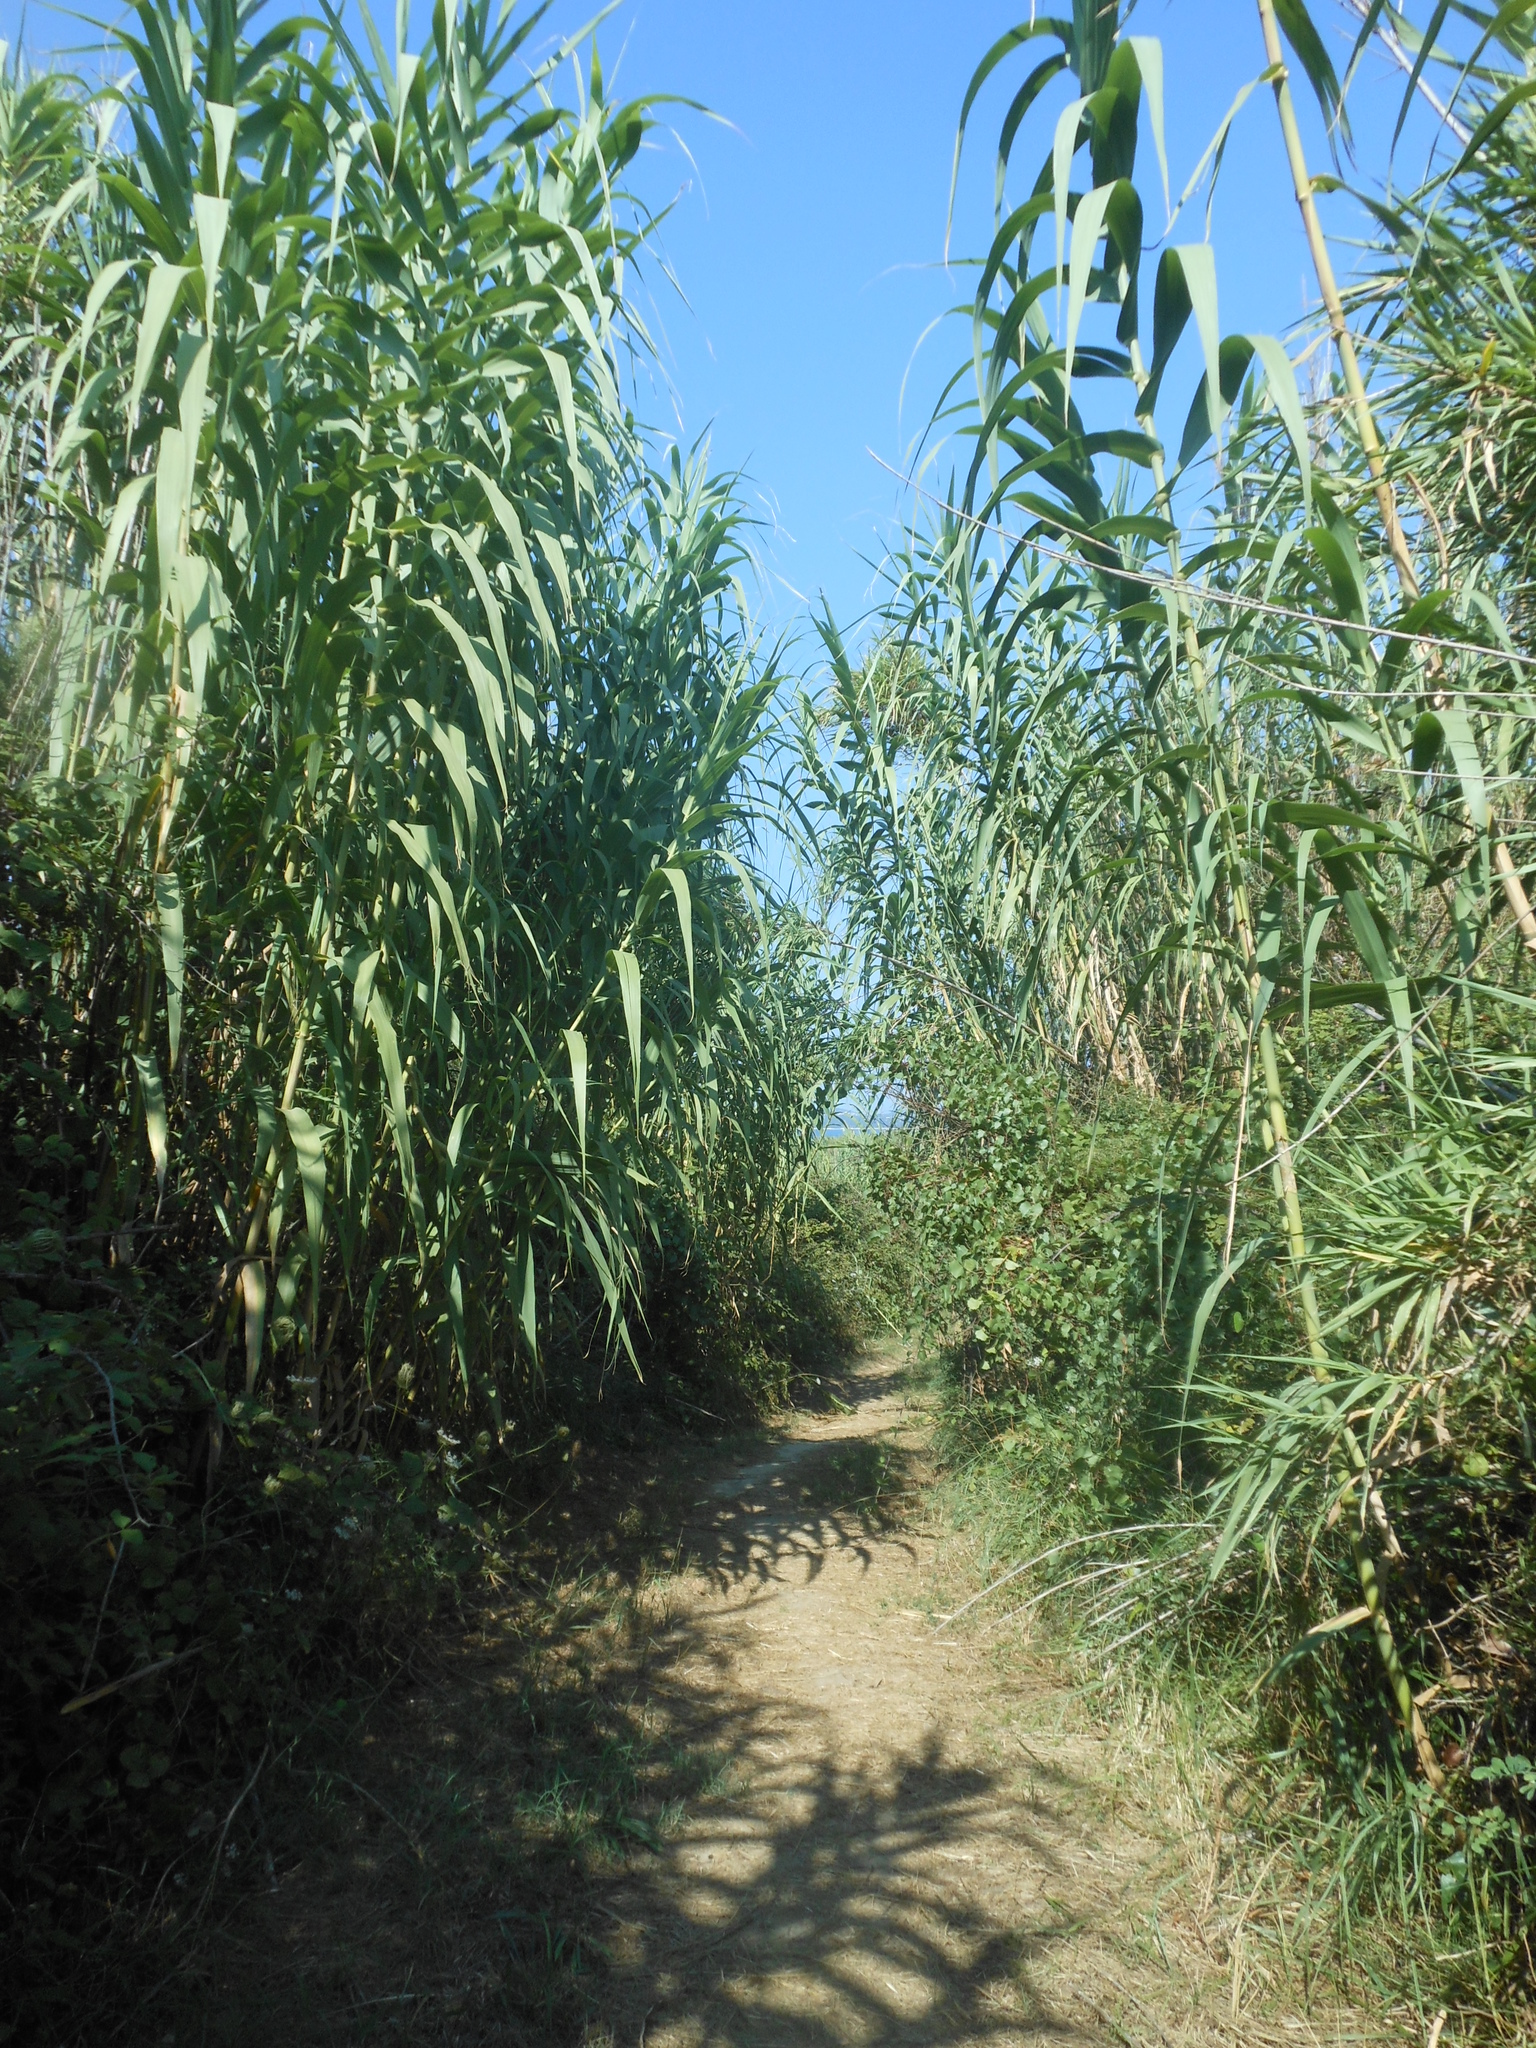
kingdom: Plantae
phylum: Tracheophyta
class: Liliopsida
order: Poales
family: Poaceae
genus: Arundo
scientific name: Arundo donax
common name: Giant reed
